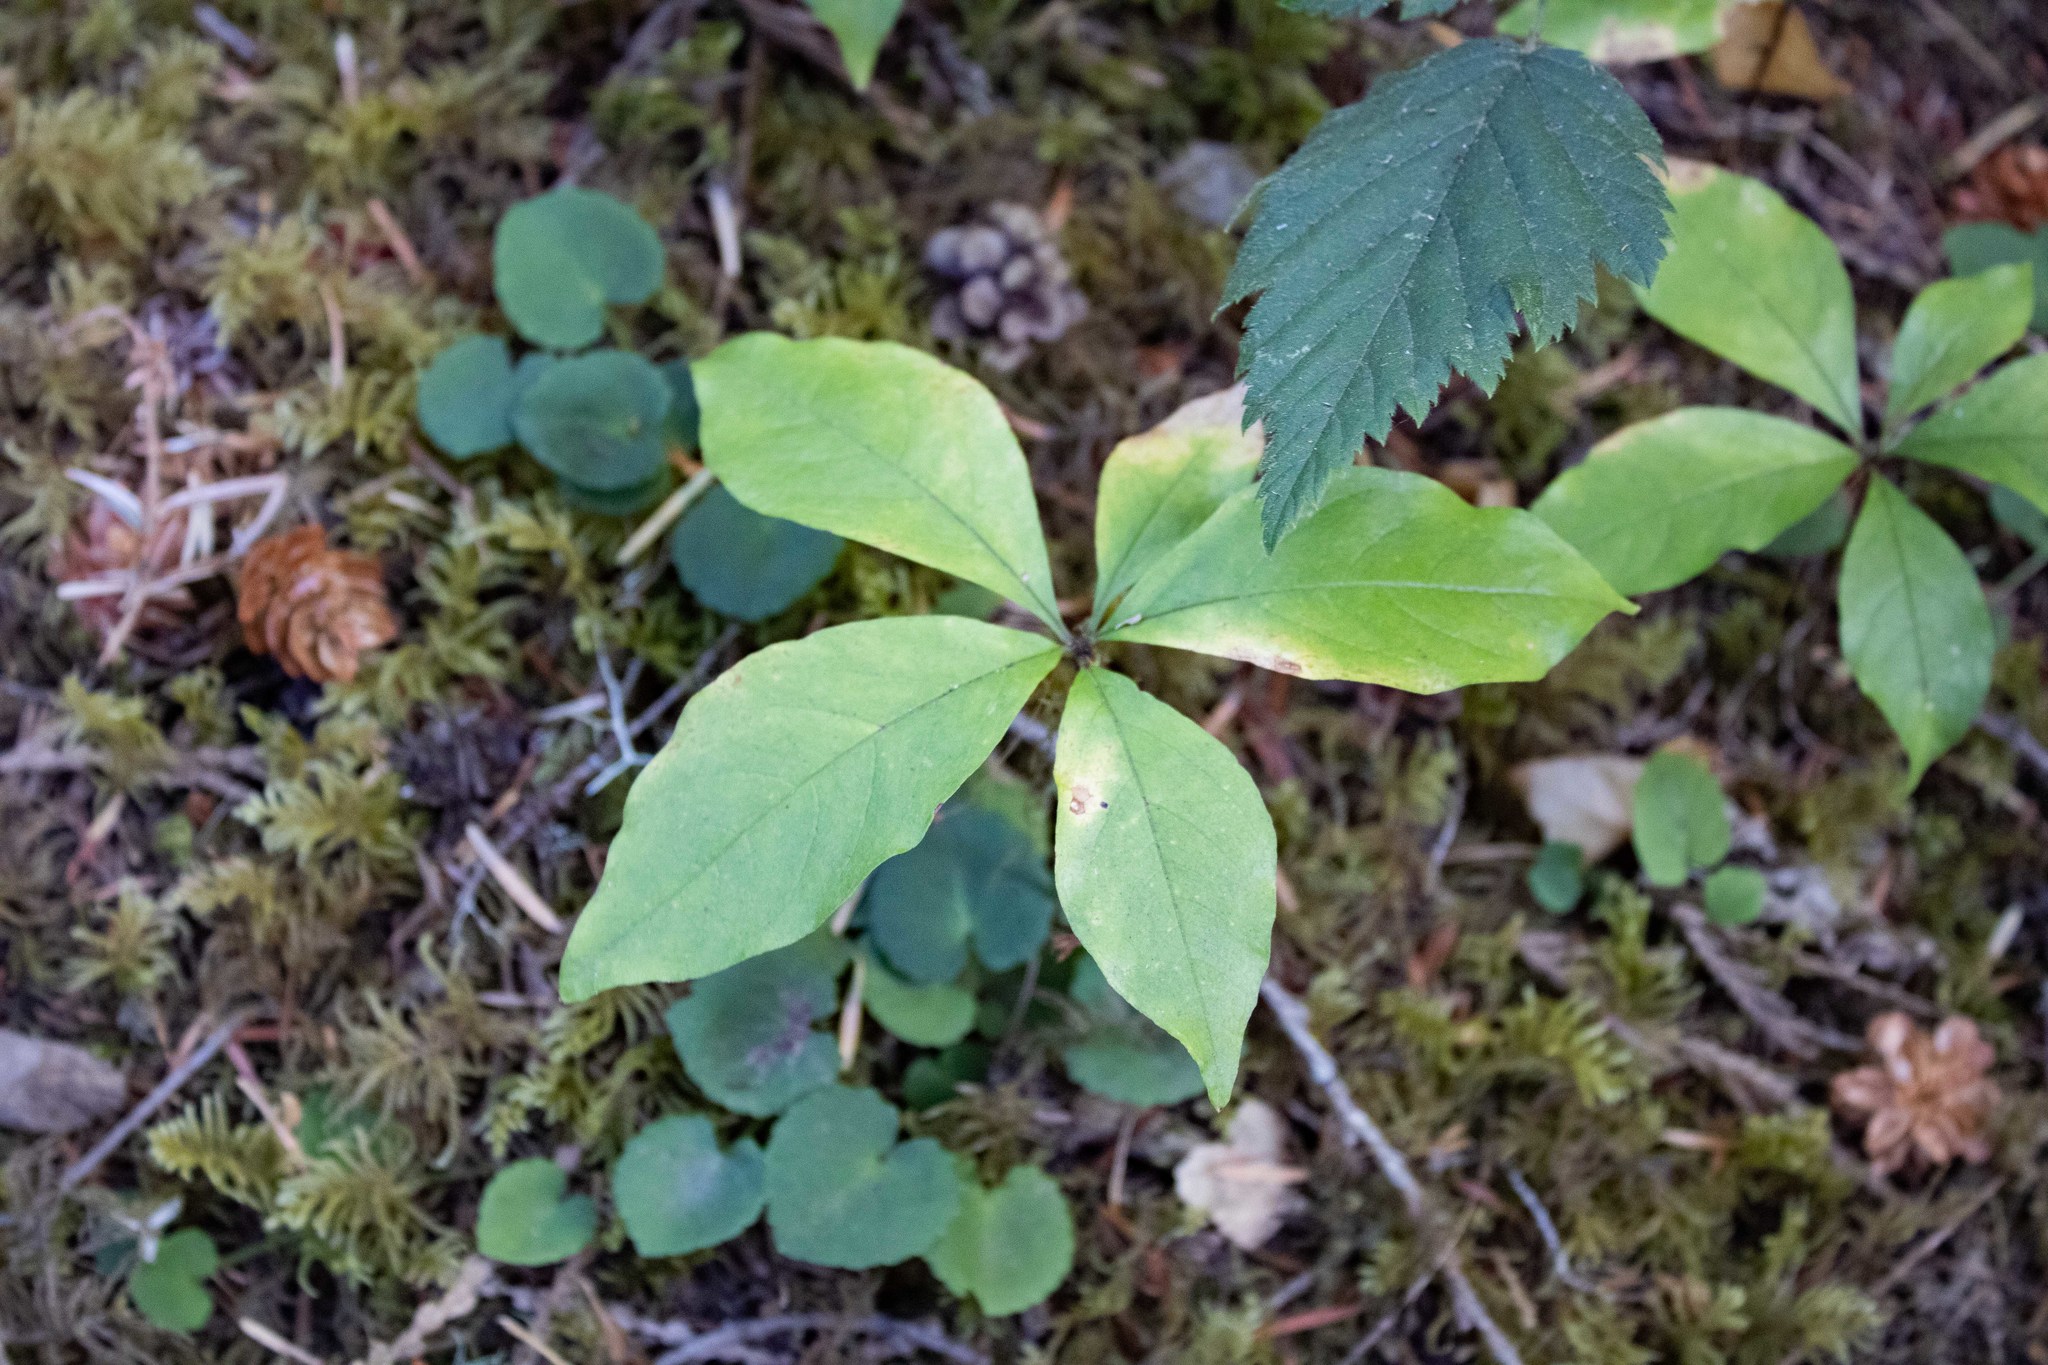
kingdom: Plantae
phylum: Tracheophyta
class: Magnoliopsida
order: Ericales
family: Primulaceae
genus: Lysimachia
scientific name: Lysimachia latifolia
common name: Pacific starflower
